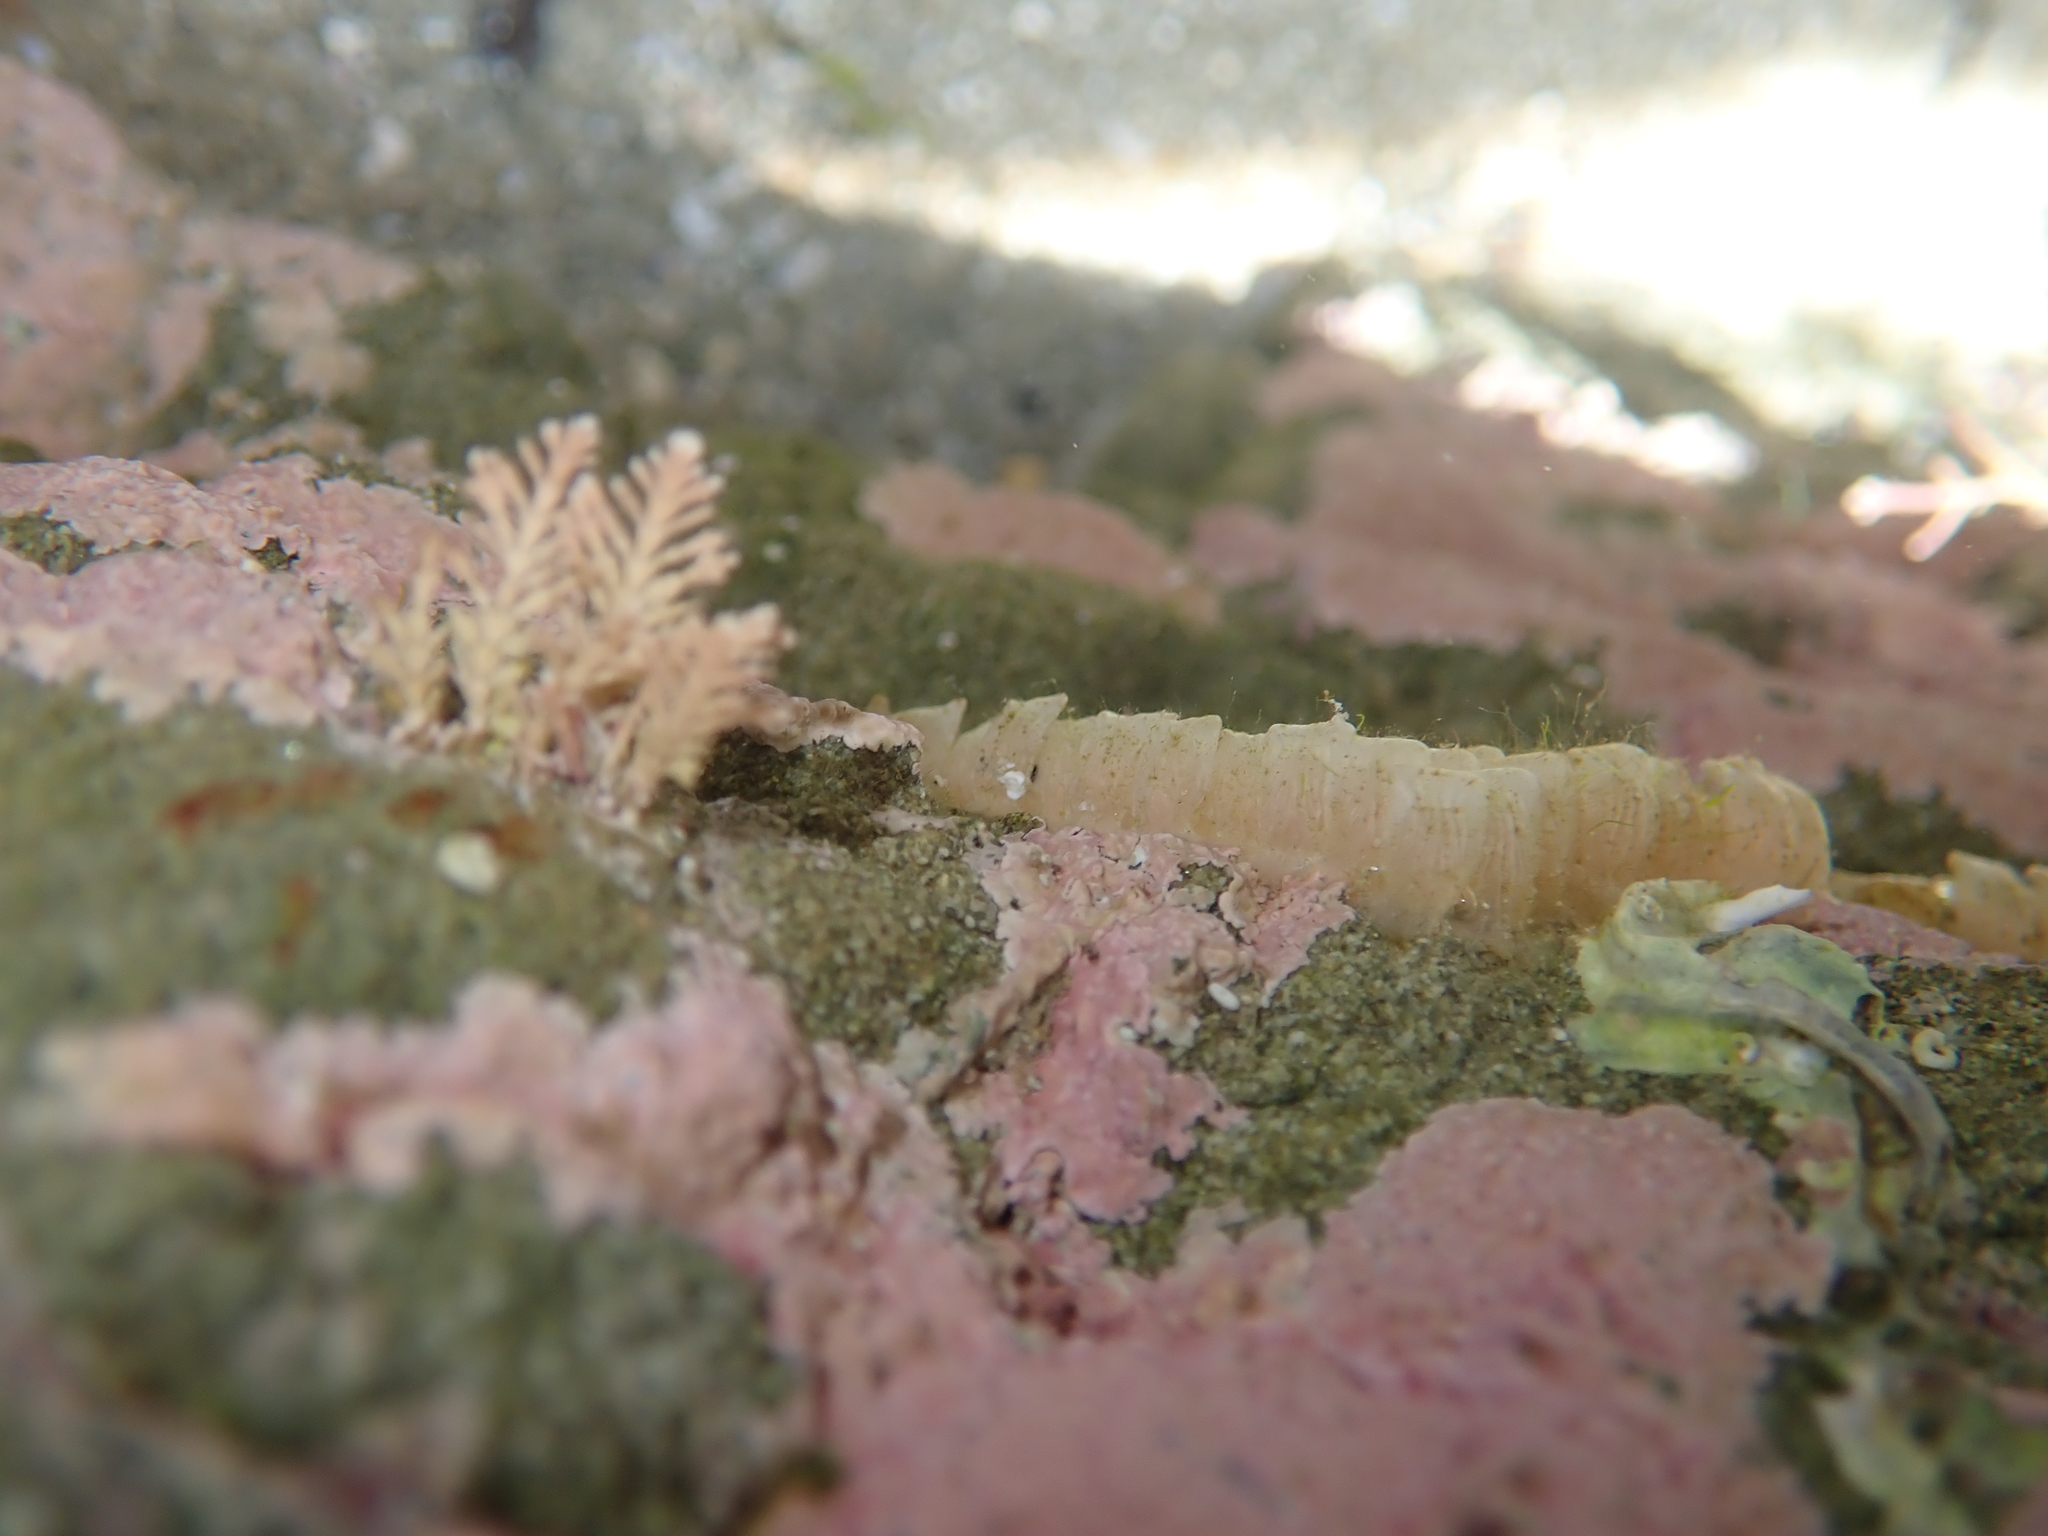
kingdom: Animalia
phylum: Mollusca
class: Gastropoda
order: Neogastropoda
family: Cominellidae
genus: Cominella
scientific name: Cominella virgata
